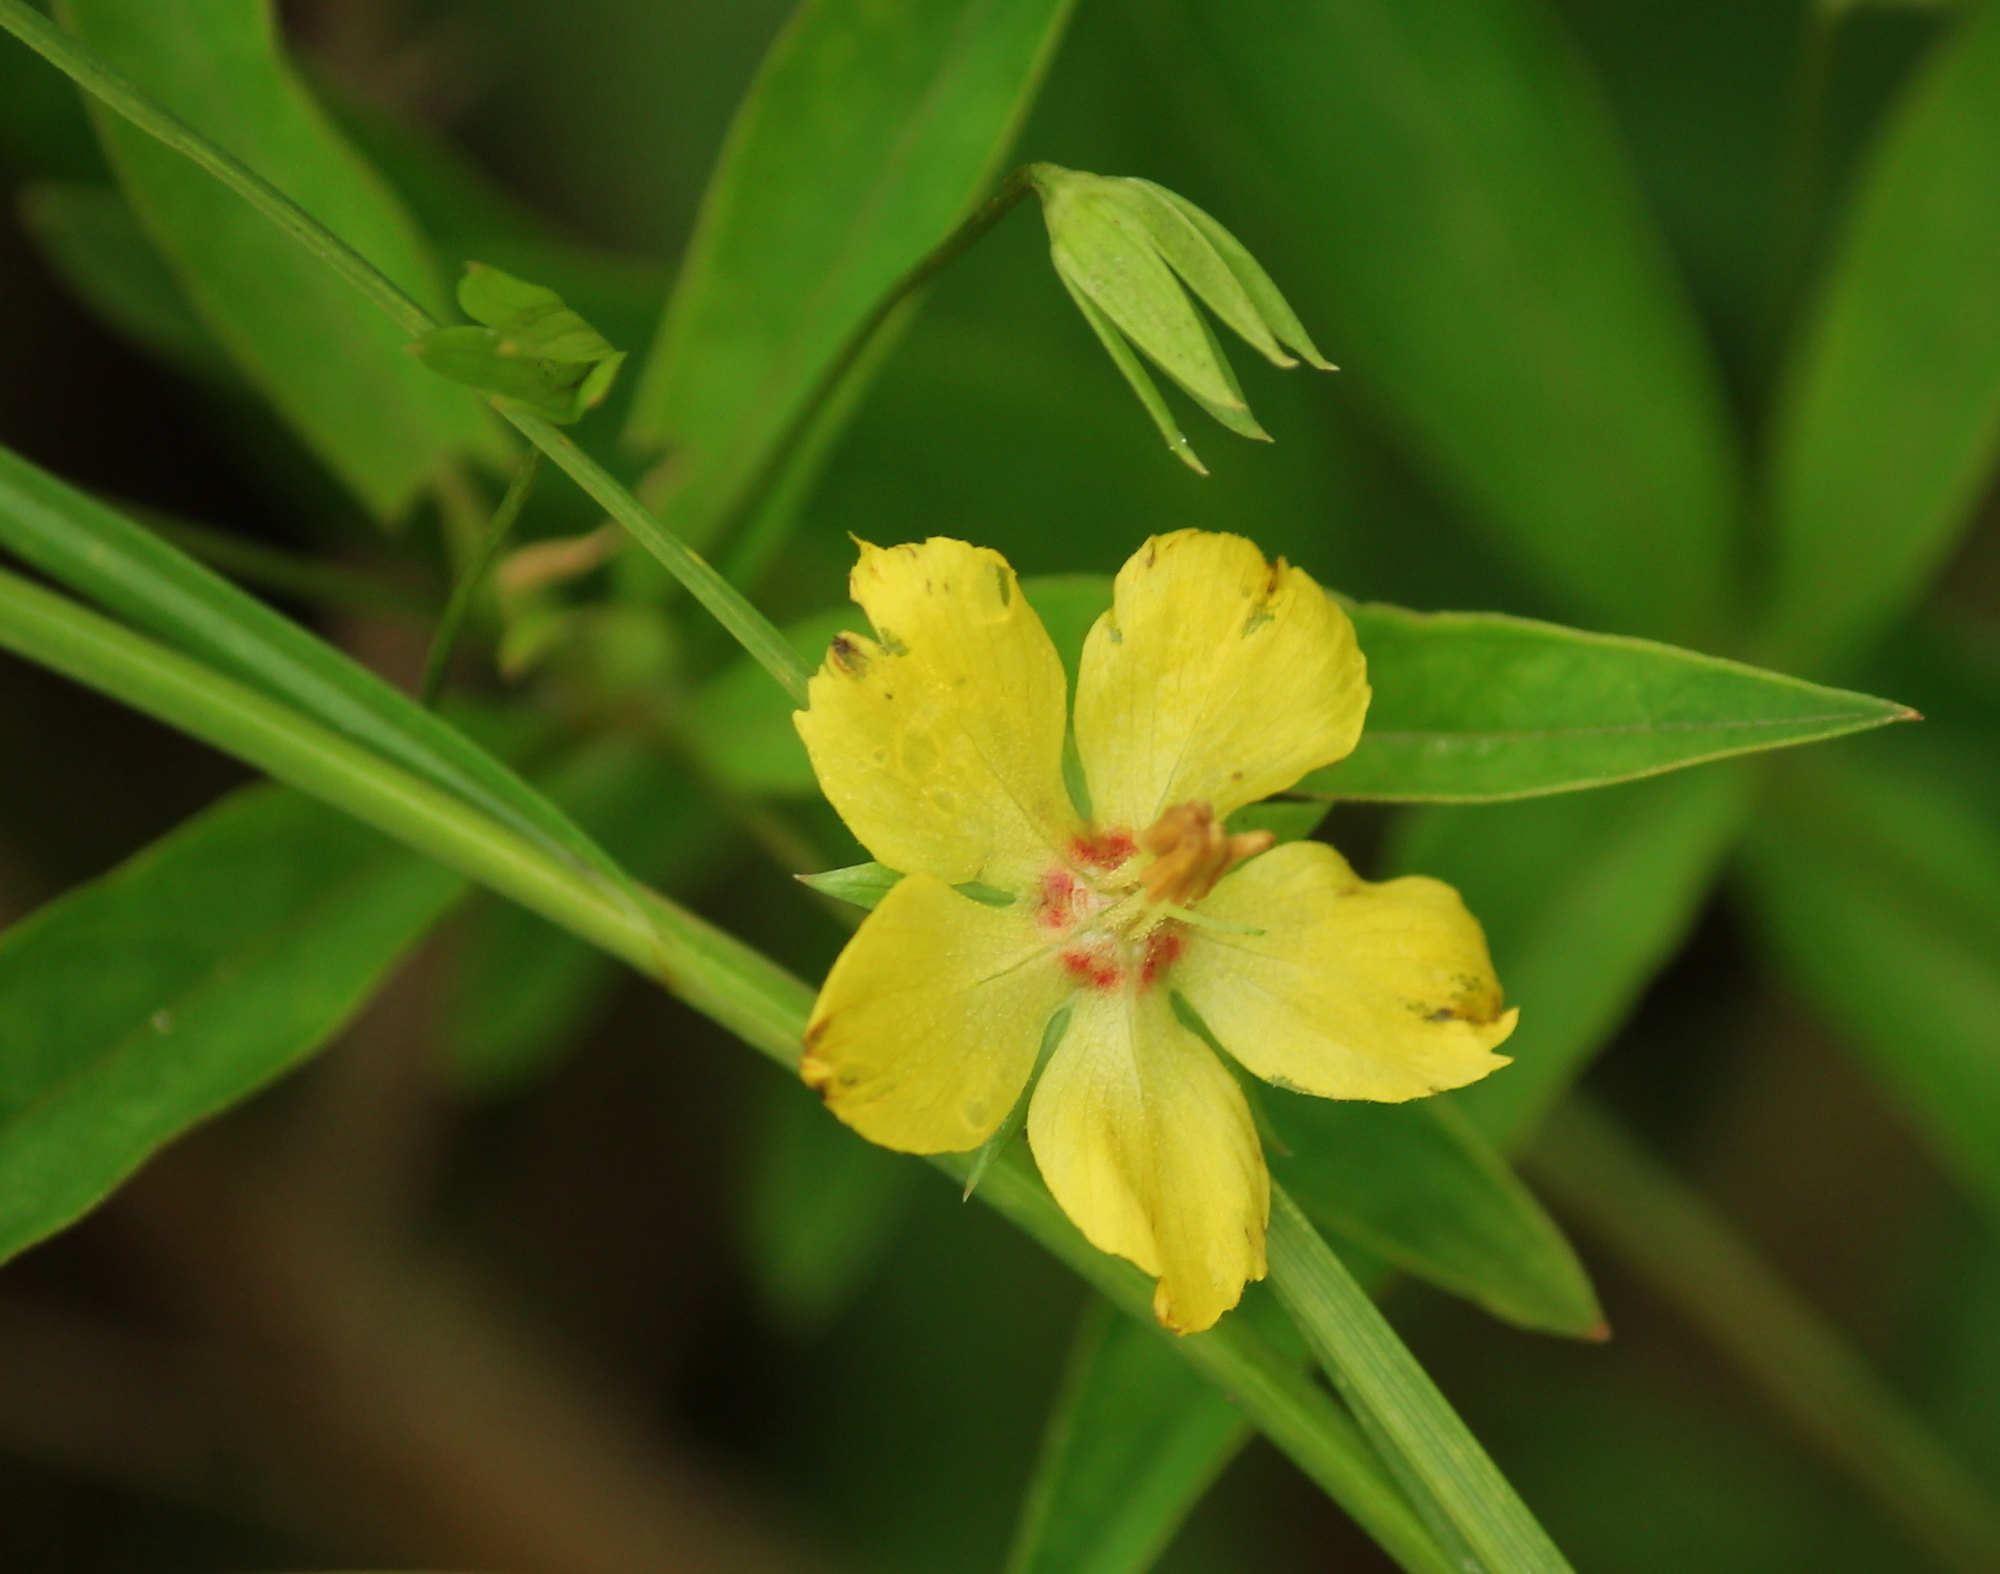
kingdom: Plantae
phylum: Tracheophyta
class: Magnoliopsida
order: Ericales
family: Primulaceae
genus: Lysimachia
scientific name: Lysimachia ciliata
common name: Fringed loosestrife
